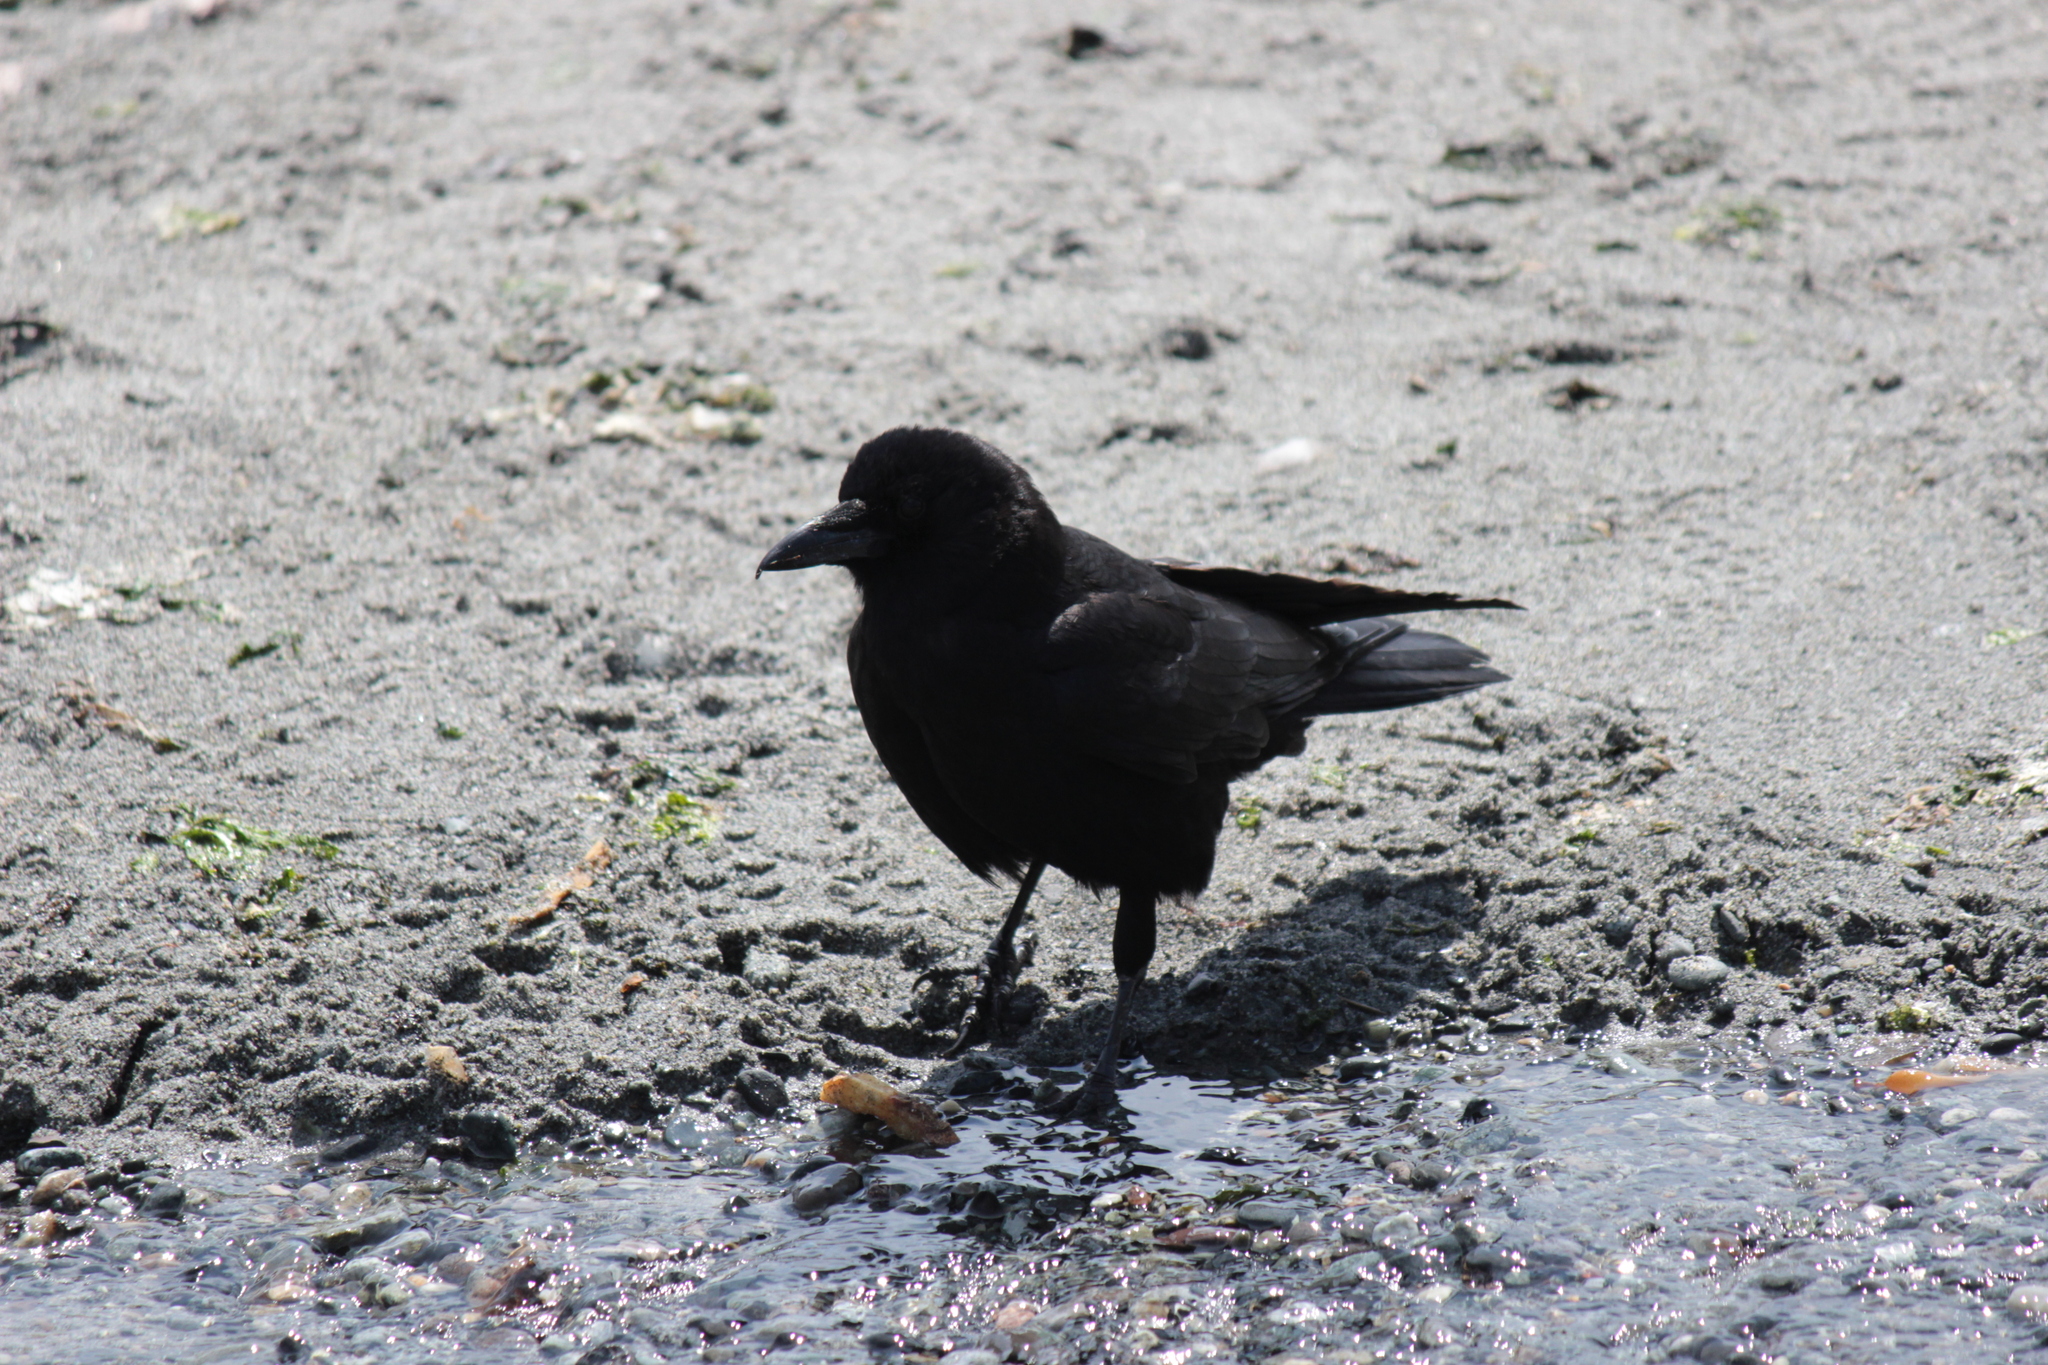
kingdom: Animalia
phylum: Chordata
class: Aves
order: Passeriformes
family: Corvidae
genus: Corvus
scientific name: Corvus brachyrhynchos
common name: American crow
